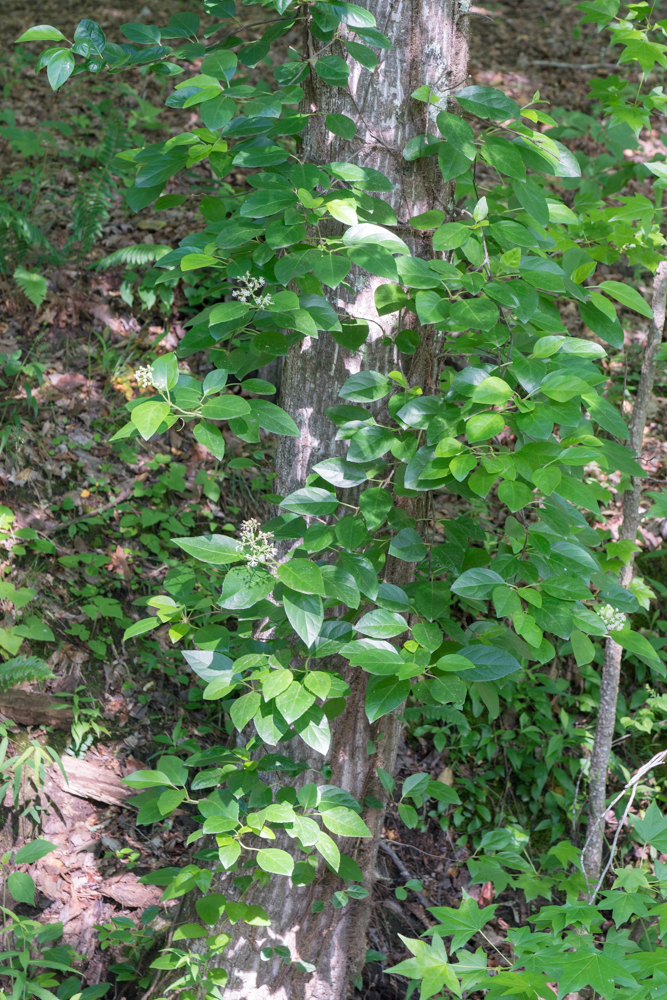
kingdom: Plantae
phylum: Tracheophyta
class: Magnoliopsida
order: Cornales
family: Hydrangeaceae
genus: Hydrangea
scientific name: Hydrangea barbara
